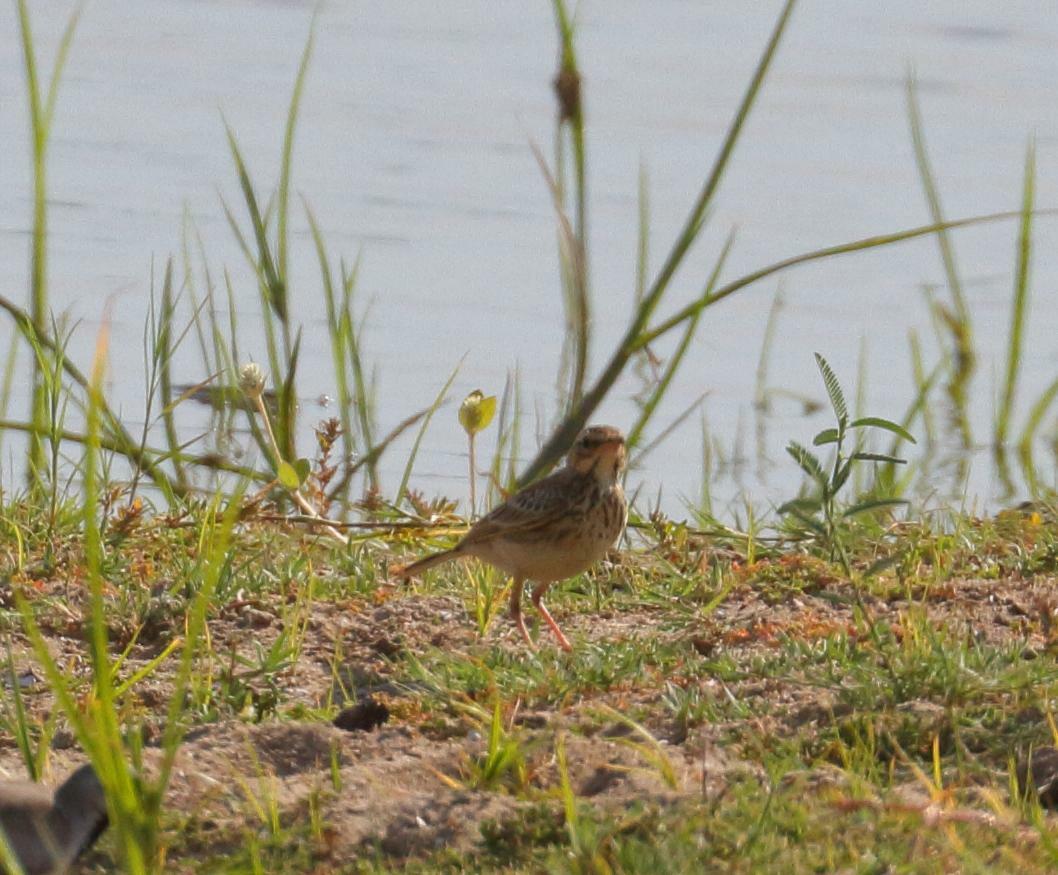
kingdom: Animalia
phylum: Chordata
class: Aves
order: Passeriformes
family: Motacillidae
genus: Anthus
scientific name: Anthus cinnamomeus
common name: African pipit
